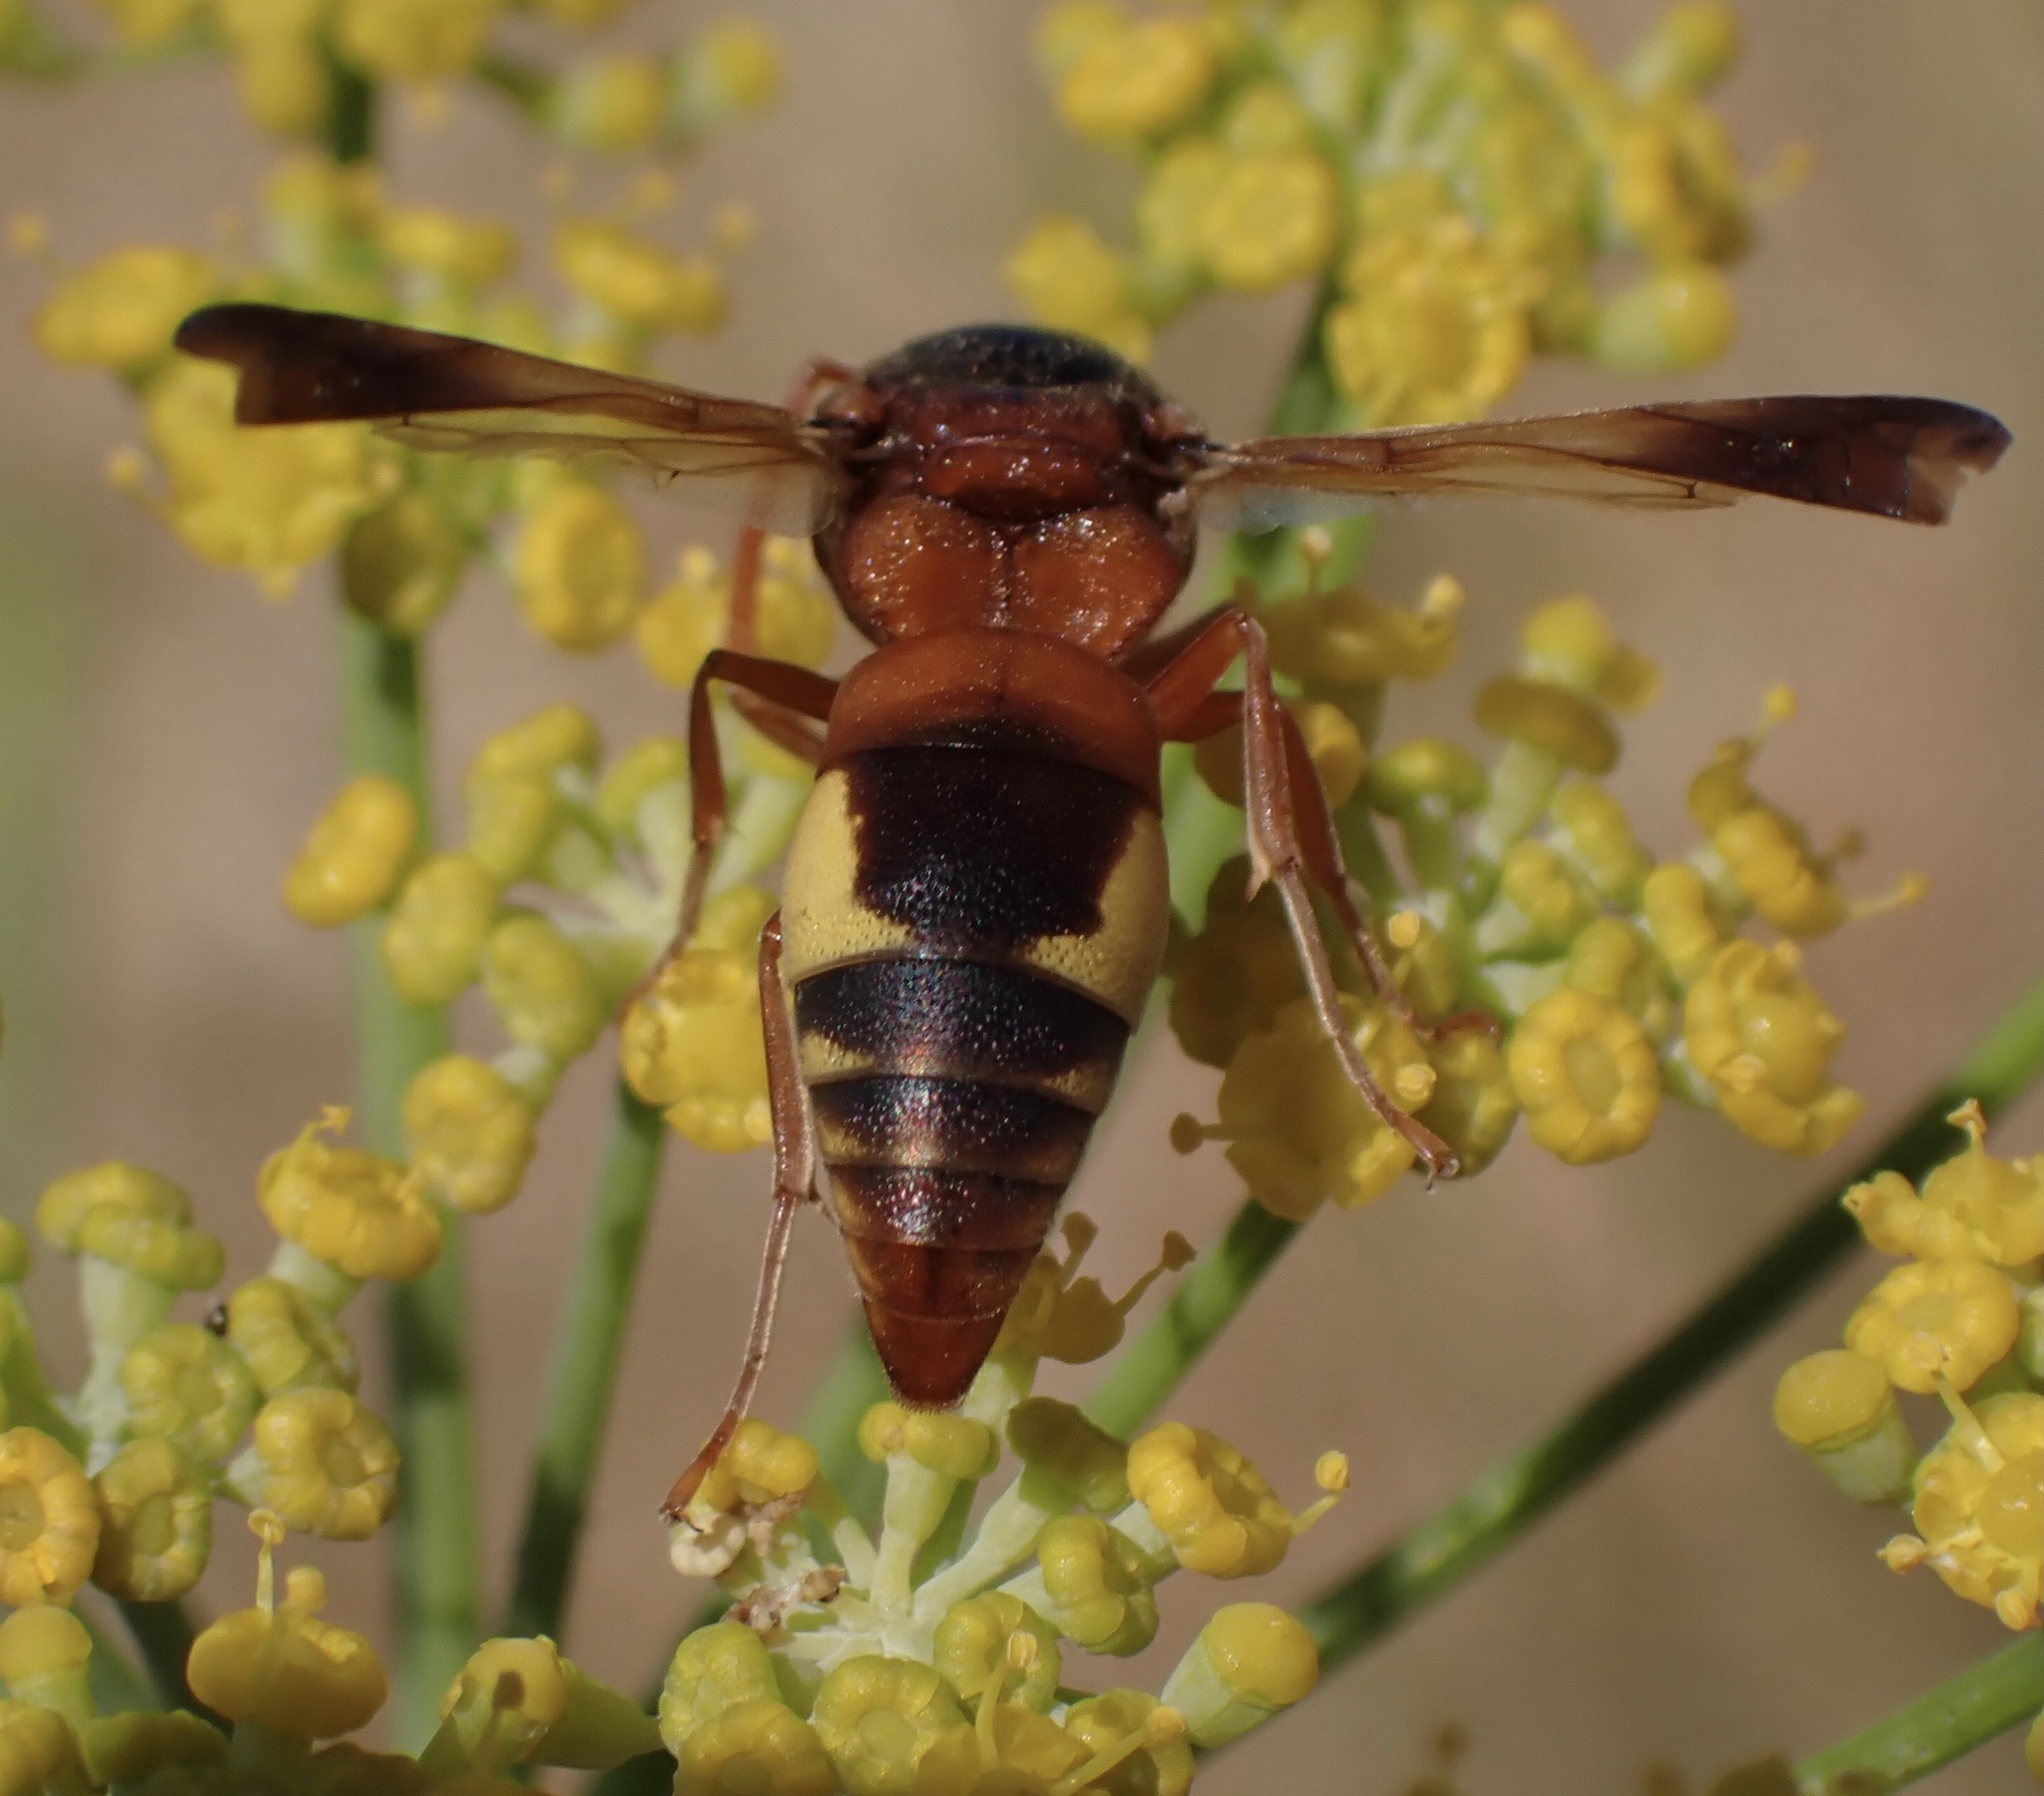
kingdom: Animalia
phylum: Arthropoda
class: Insecta
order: Hymenoptera
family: Eumenidae
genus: Rhynchium
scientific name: Rhynchium oculatum
